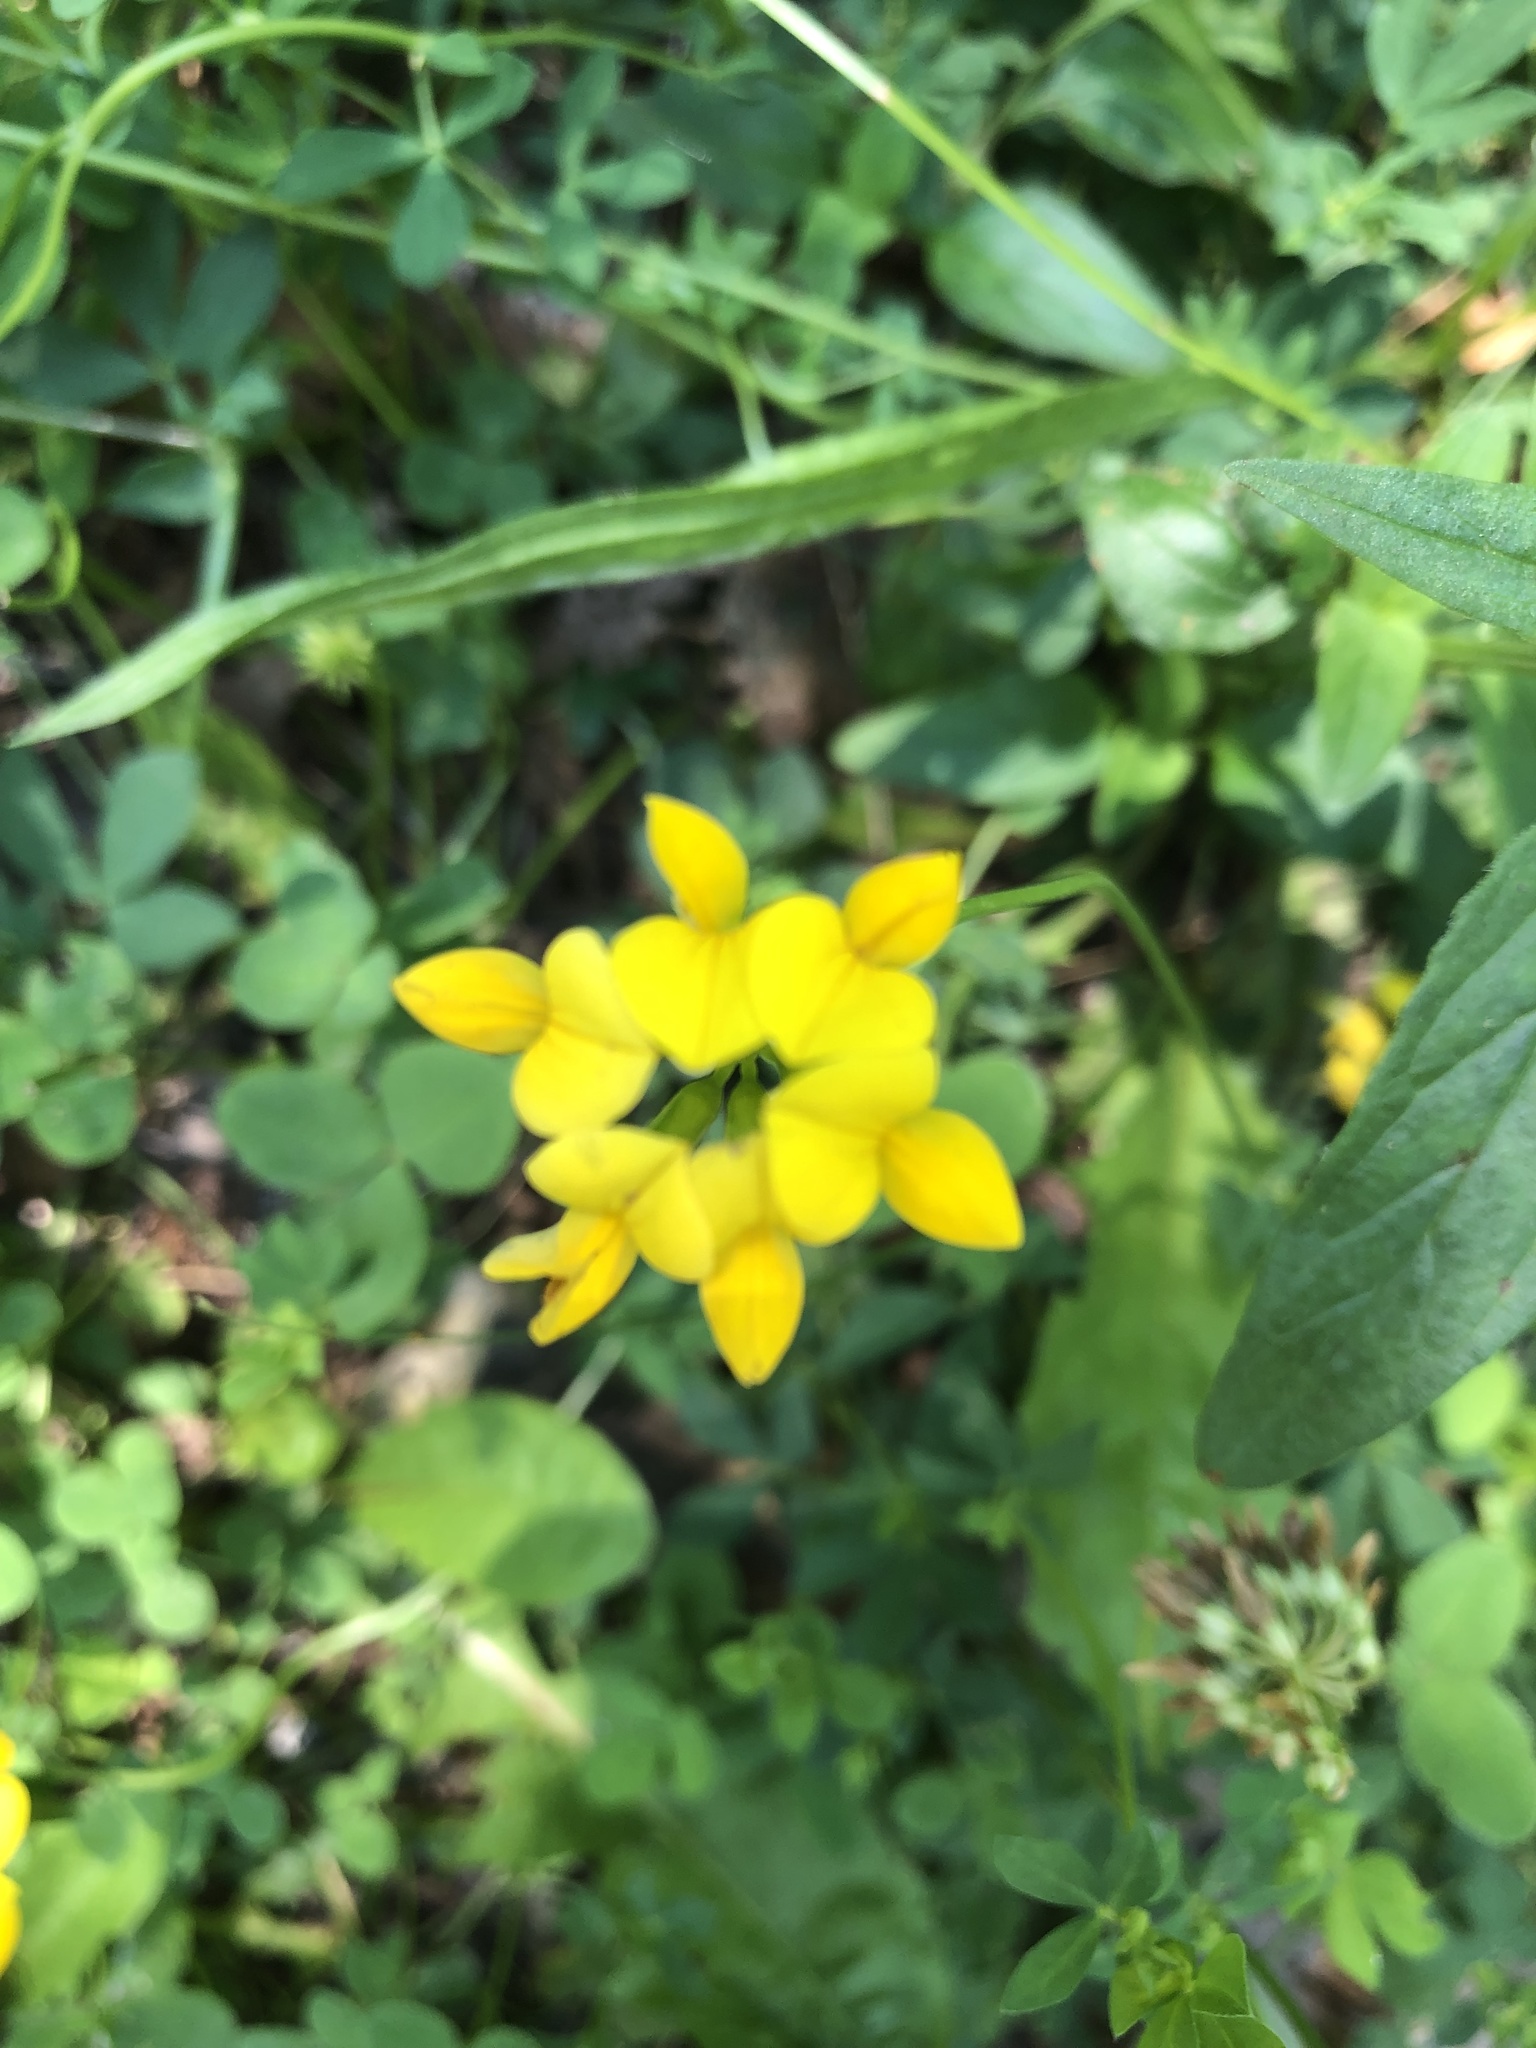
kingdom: Plantae
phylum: Tracheophyta
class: Magnoliopsida
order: Fabales
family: Fabaceae
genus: Lotus
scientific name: Lotus corniculatus
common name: Common bird's-foot-trefoil
